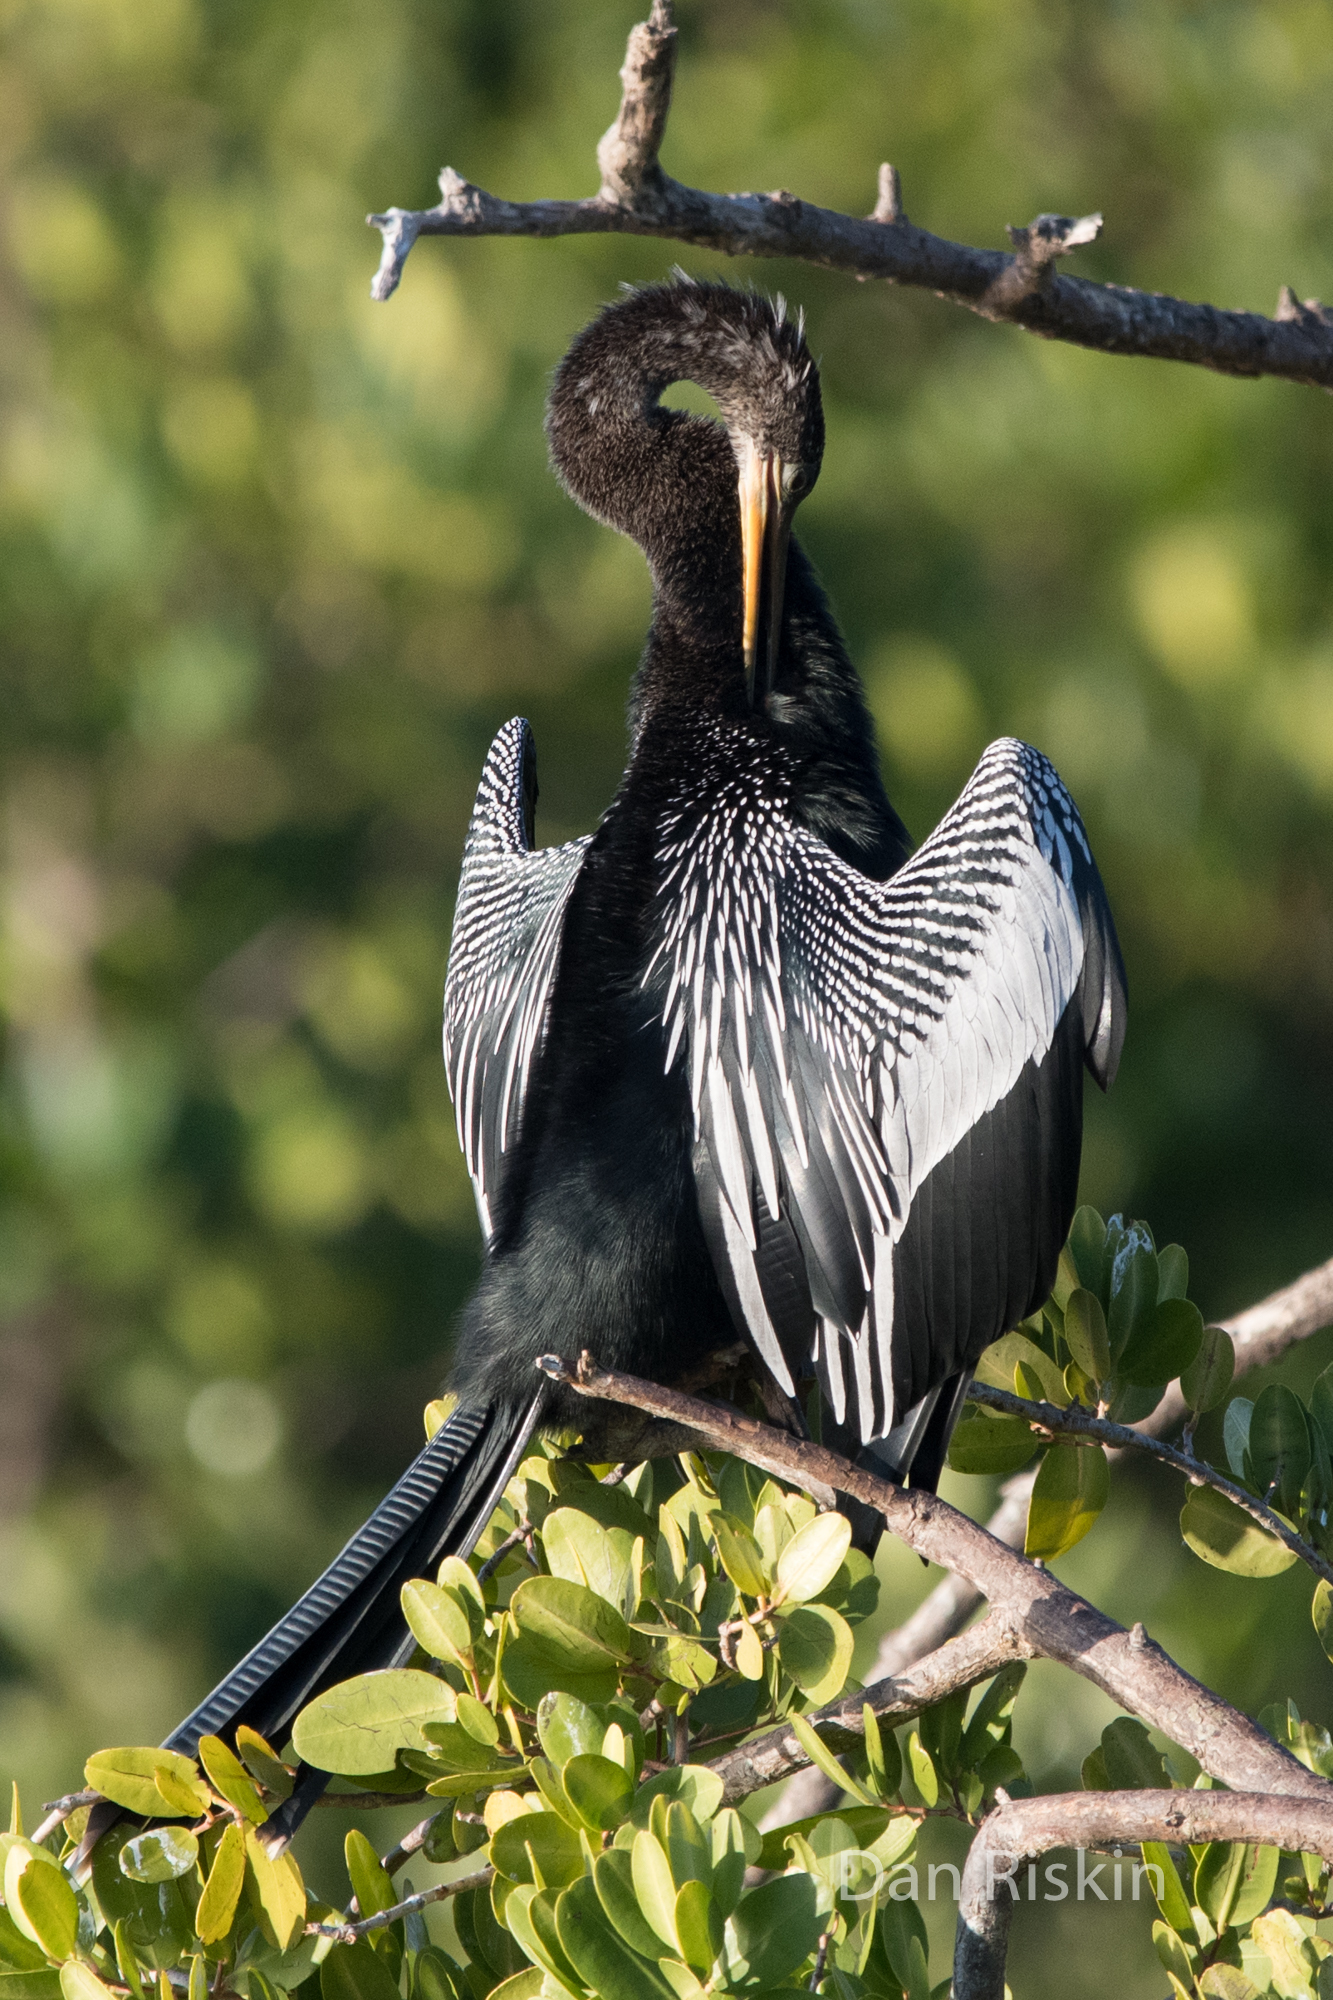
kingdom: Animalia
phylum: Chordata
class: Aves
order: Suliformes
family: Anhingidae
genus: Anhinga
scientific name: Anhinga anhinga
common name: Anhinga
